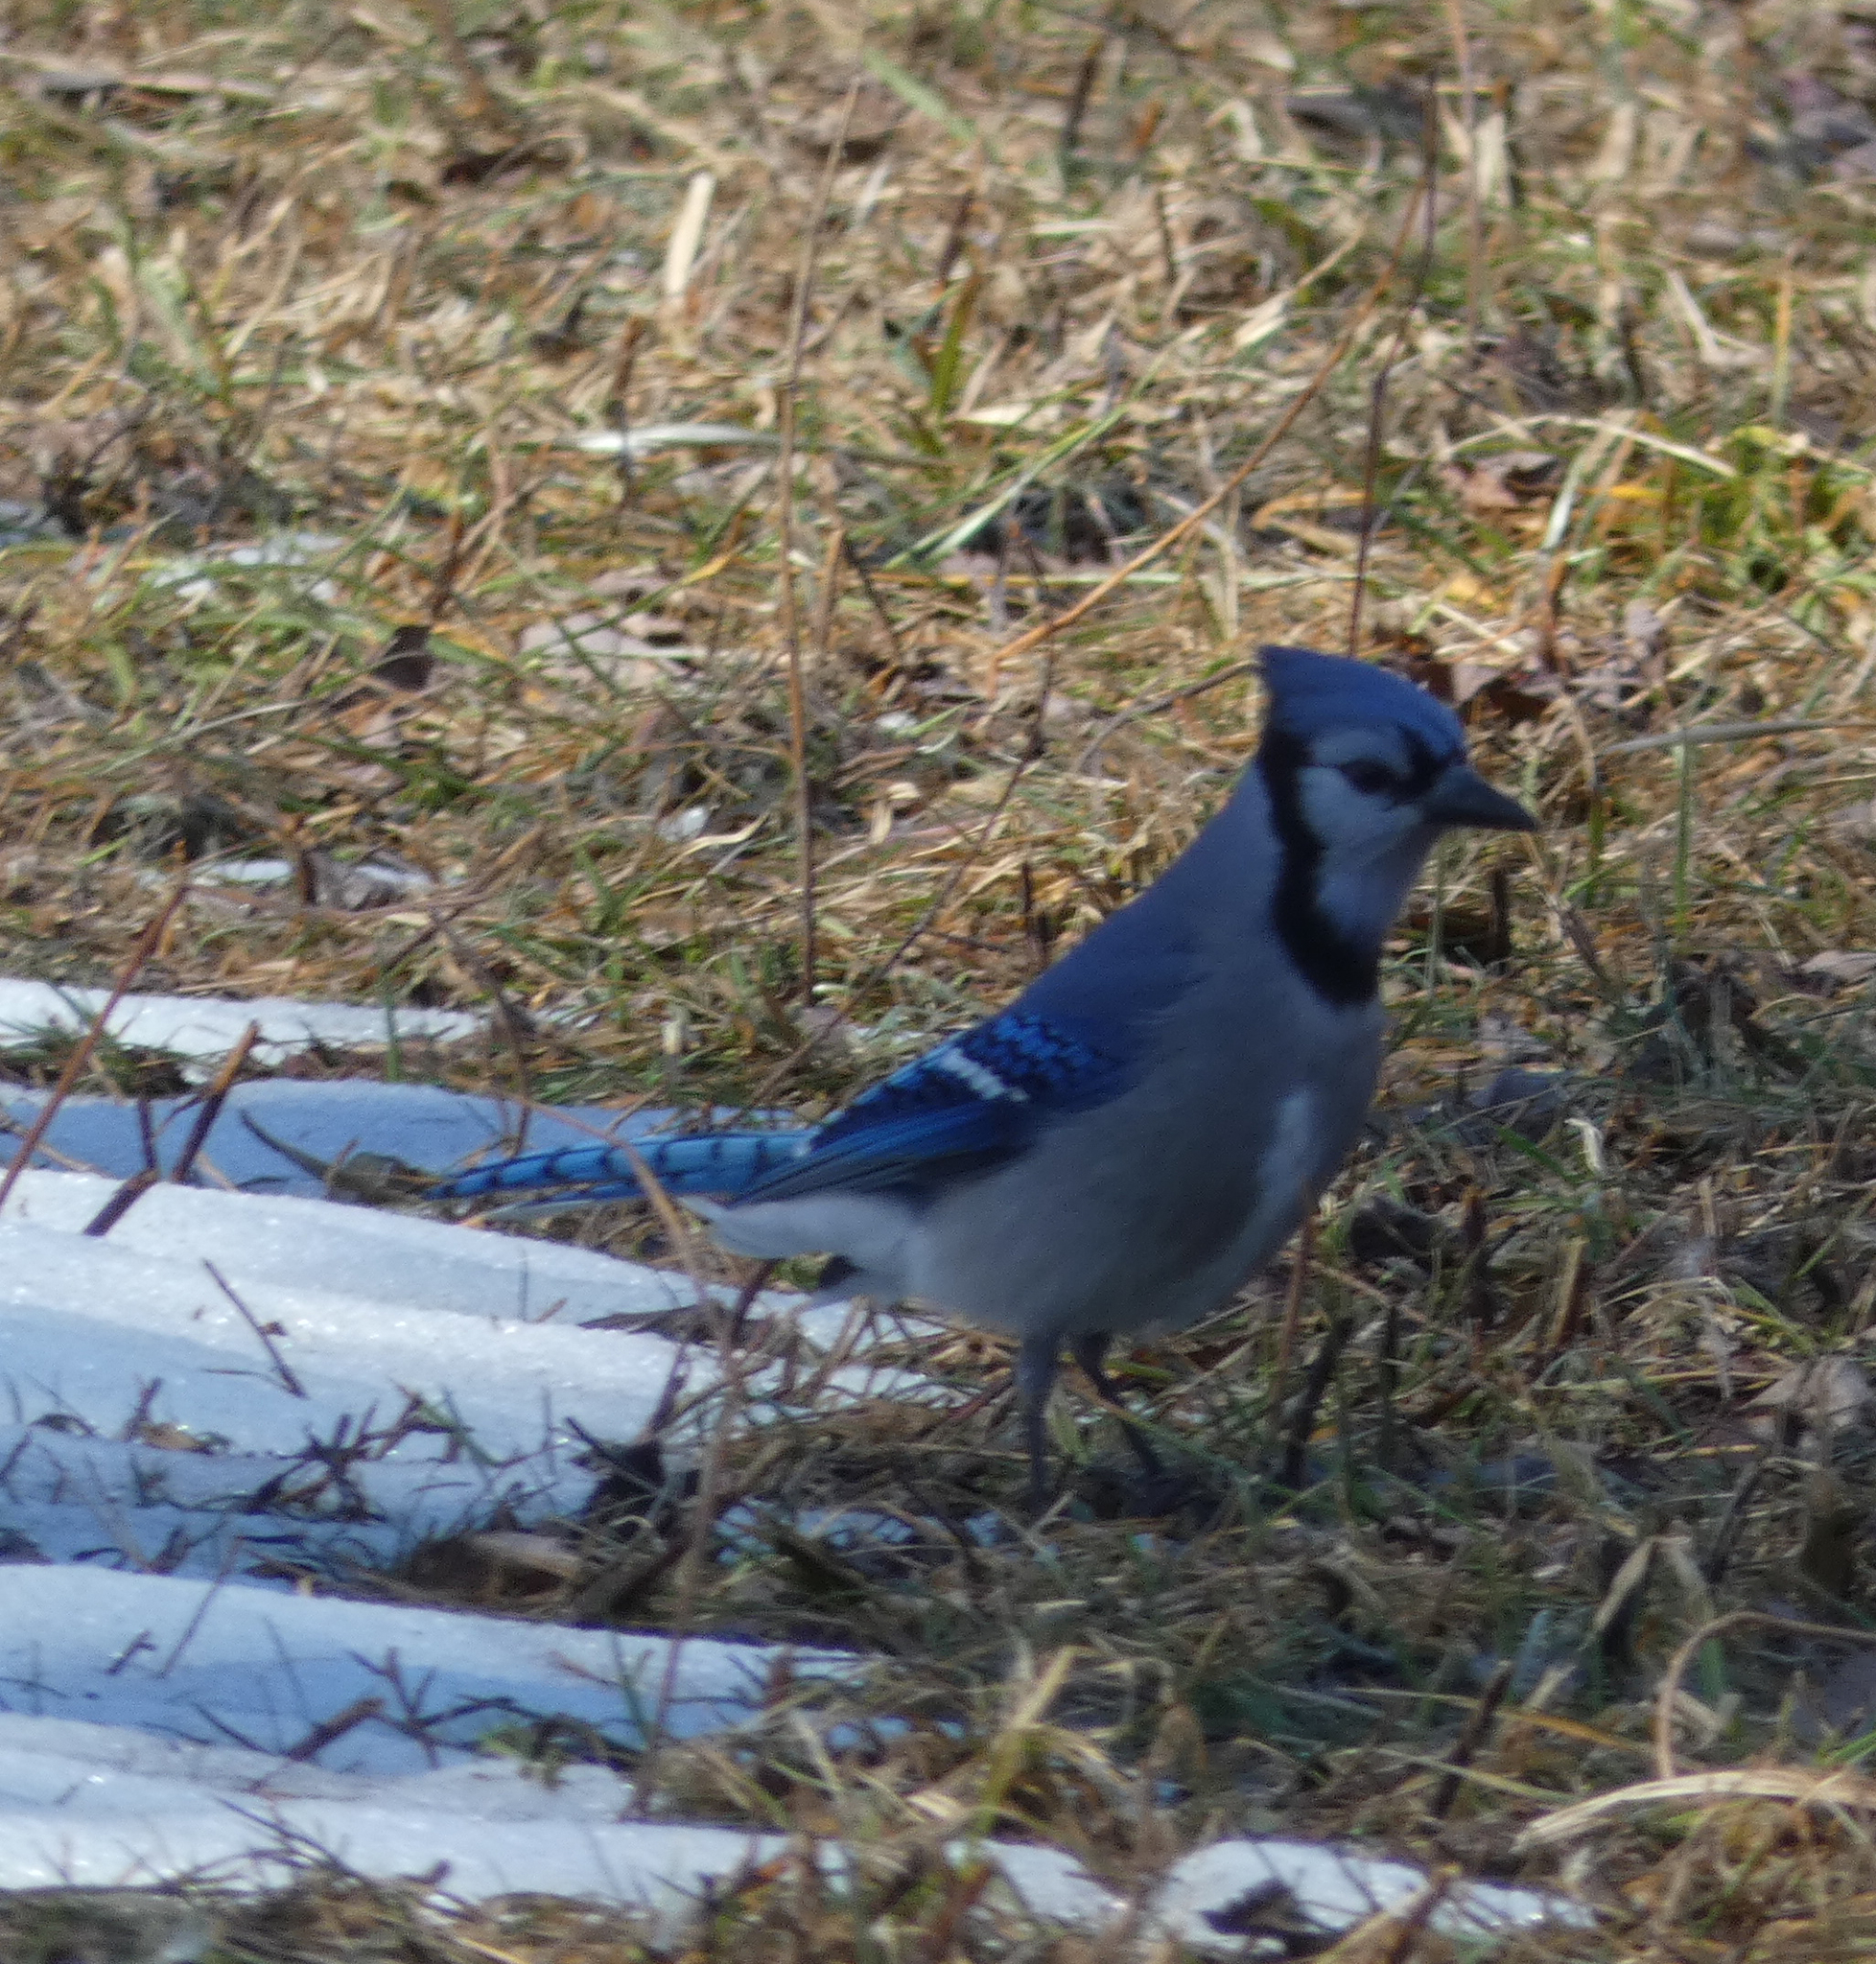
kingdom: Animalia
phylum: Chordata
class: Aves
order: Passeriformes
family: Corvidae
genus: Cyanocitta
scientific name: Cyanocitta cristata
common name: Blue jay
